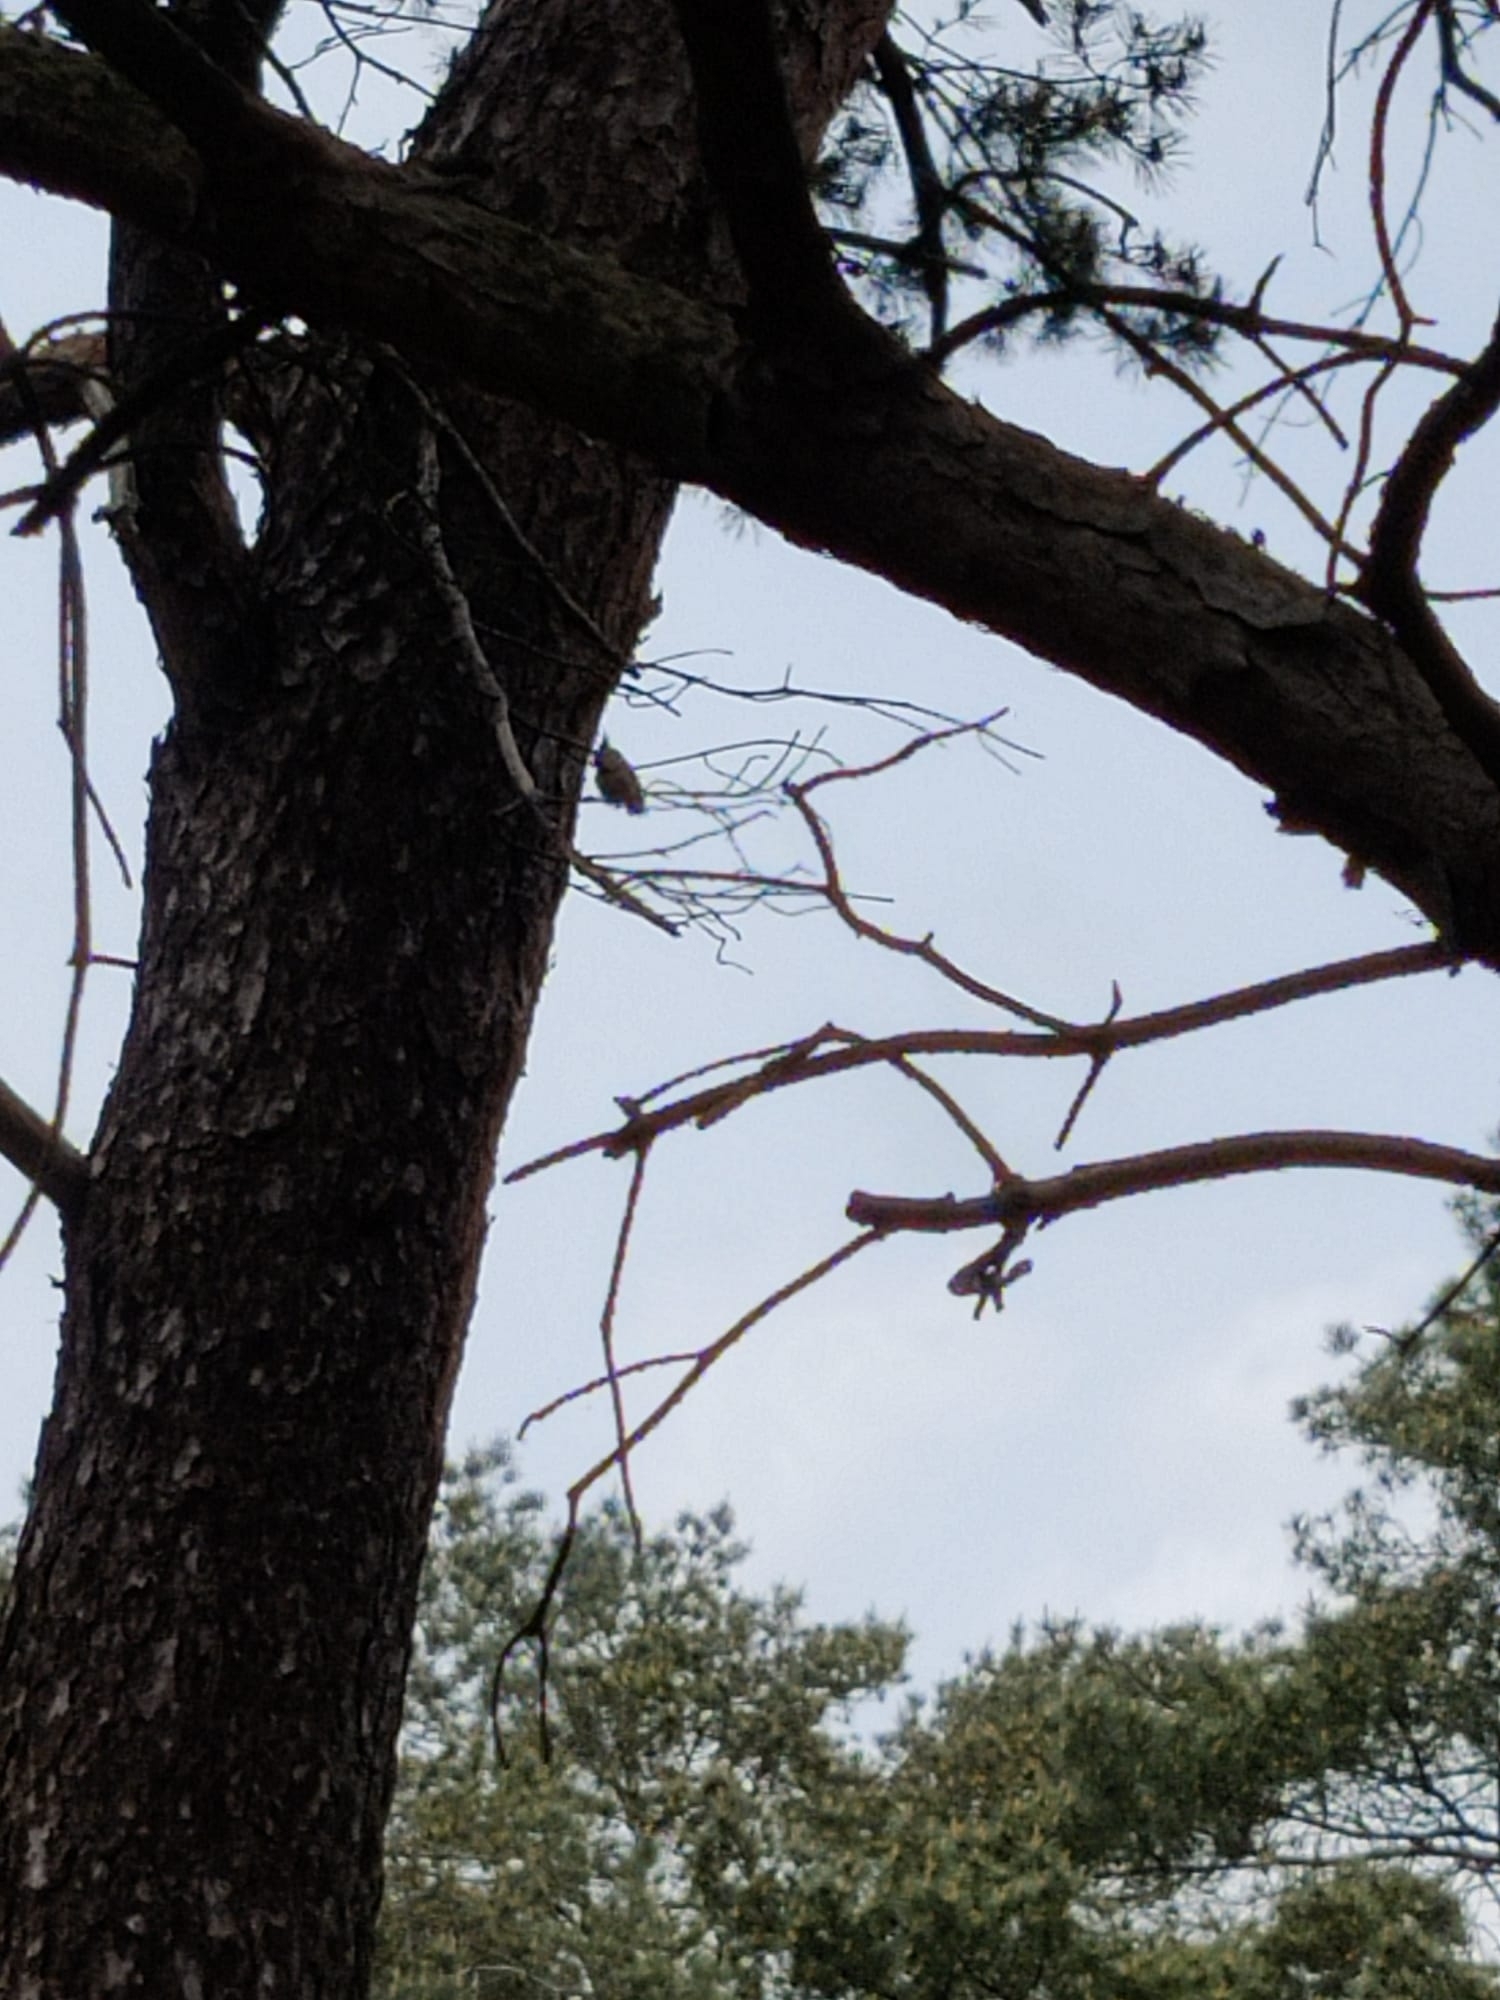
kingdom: Animalia
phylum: Chordata
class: Aves
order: Passeriformes
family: Paridae
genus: Lophophanes
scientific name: Lophophanes cristatus
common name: European crested tit
